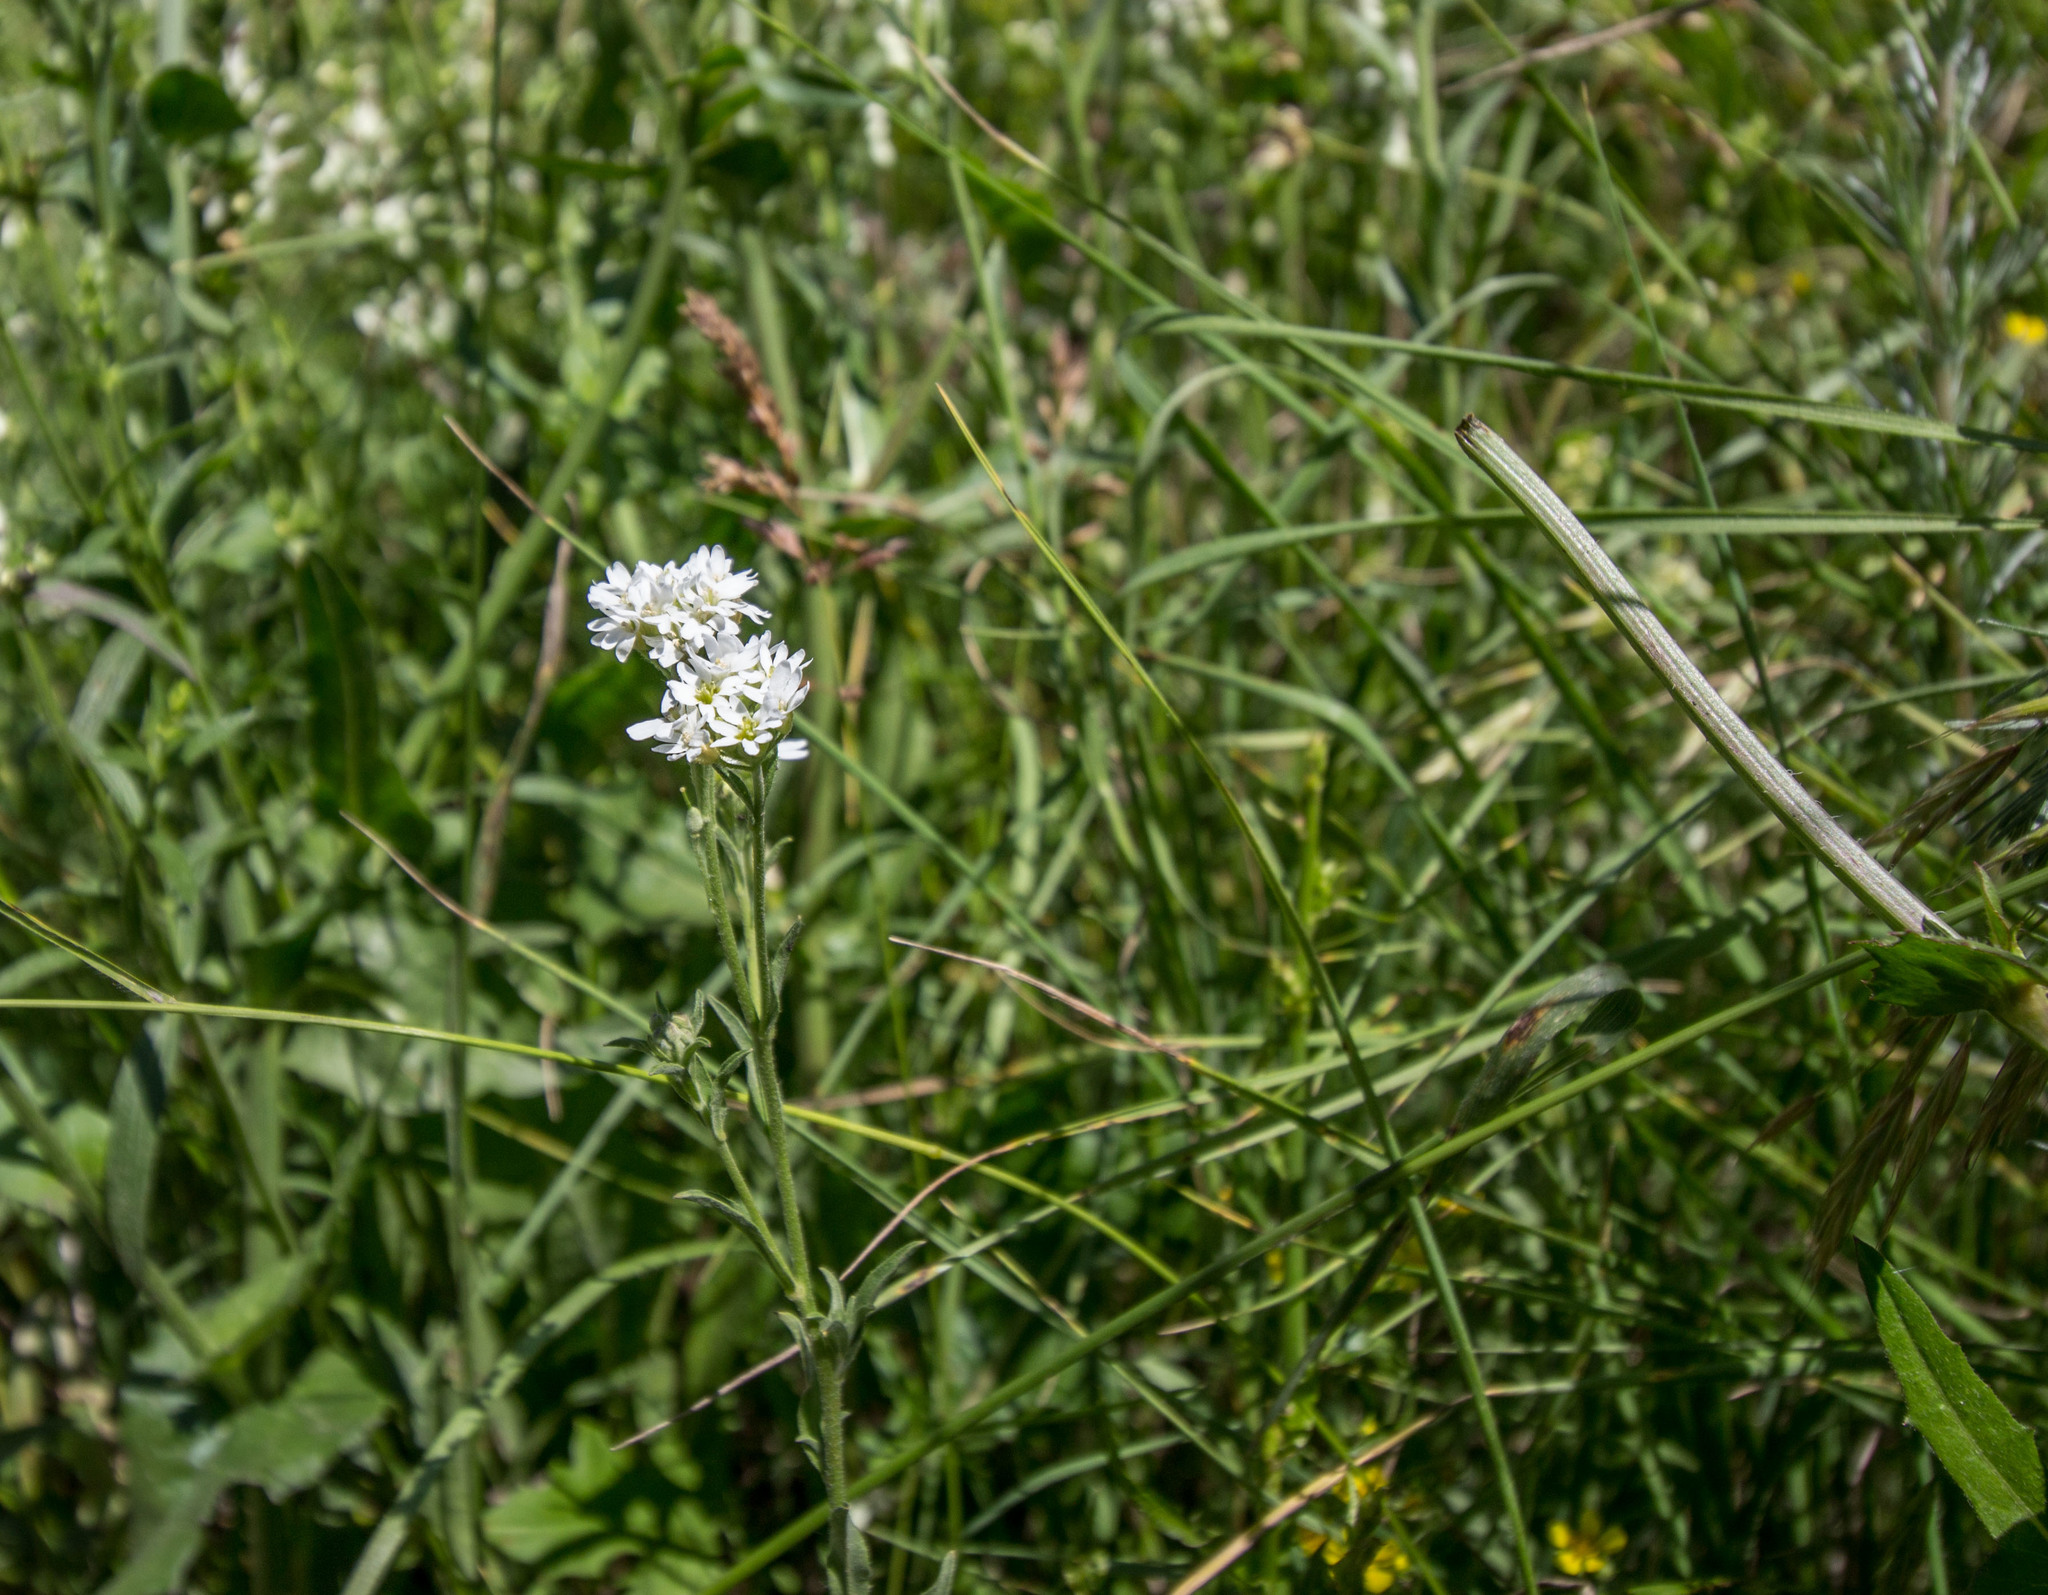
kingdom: Plantae
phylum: Tracheophyta
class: Magnoliopsida
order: Brassicales
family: Brassicaceae
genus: Berteroa
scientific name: Berteroa incana
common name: Hoary alison
